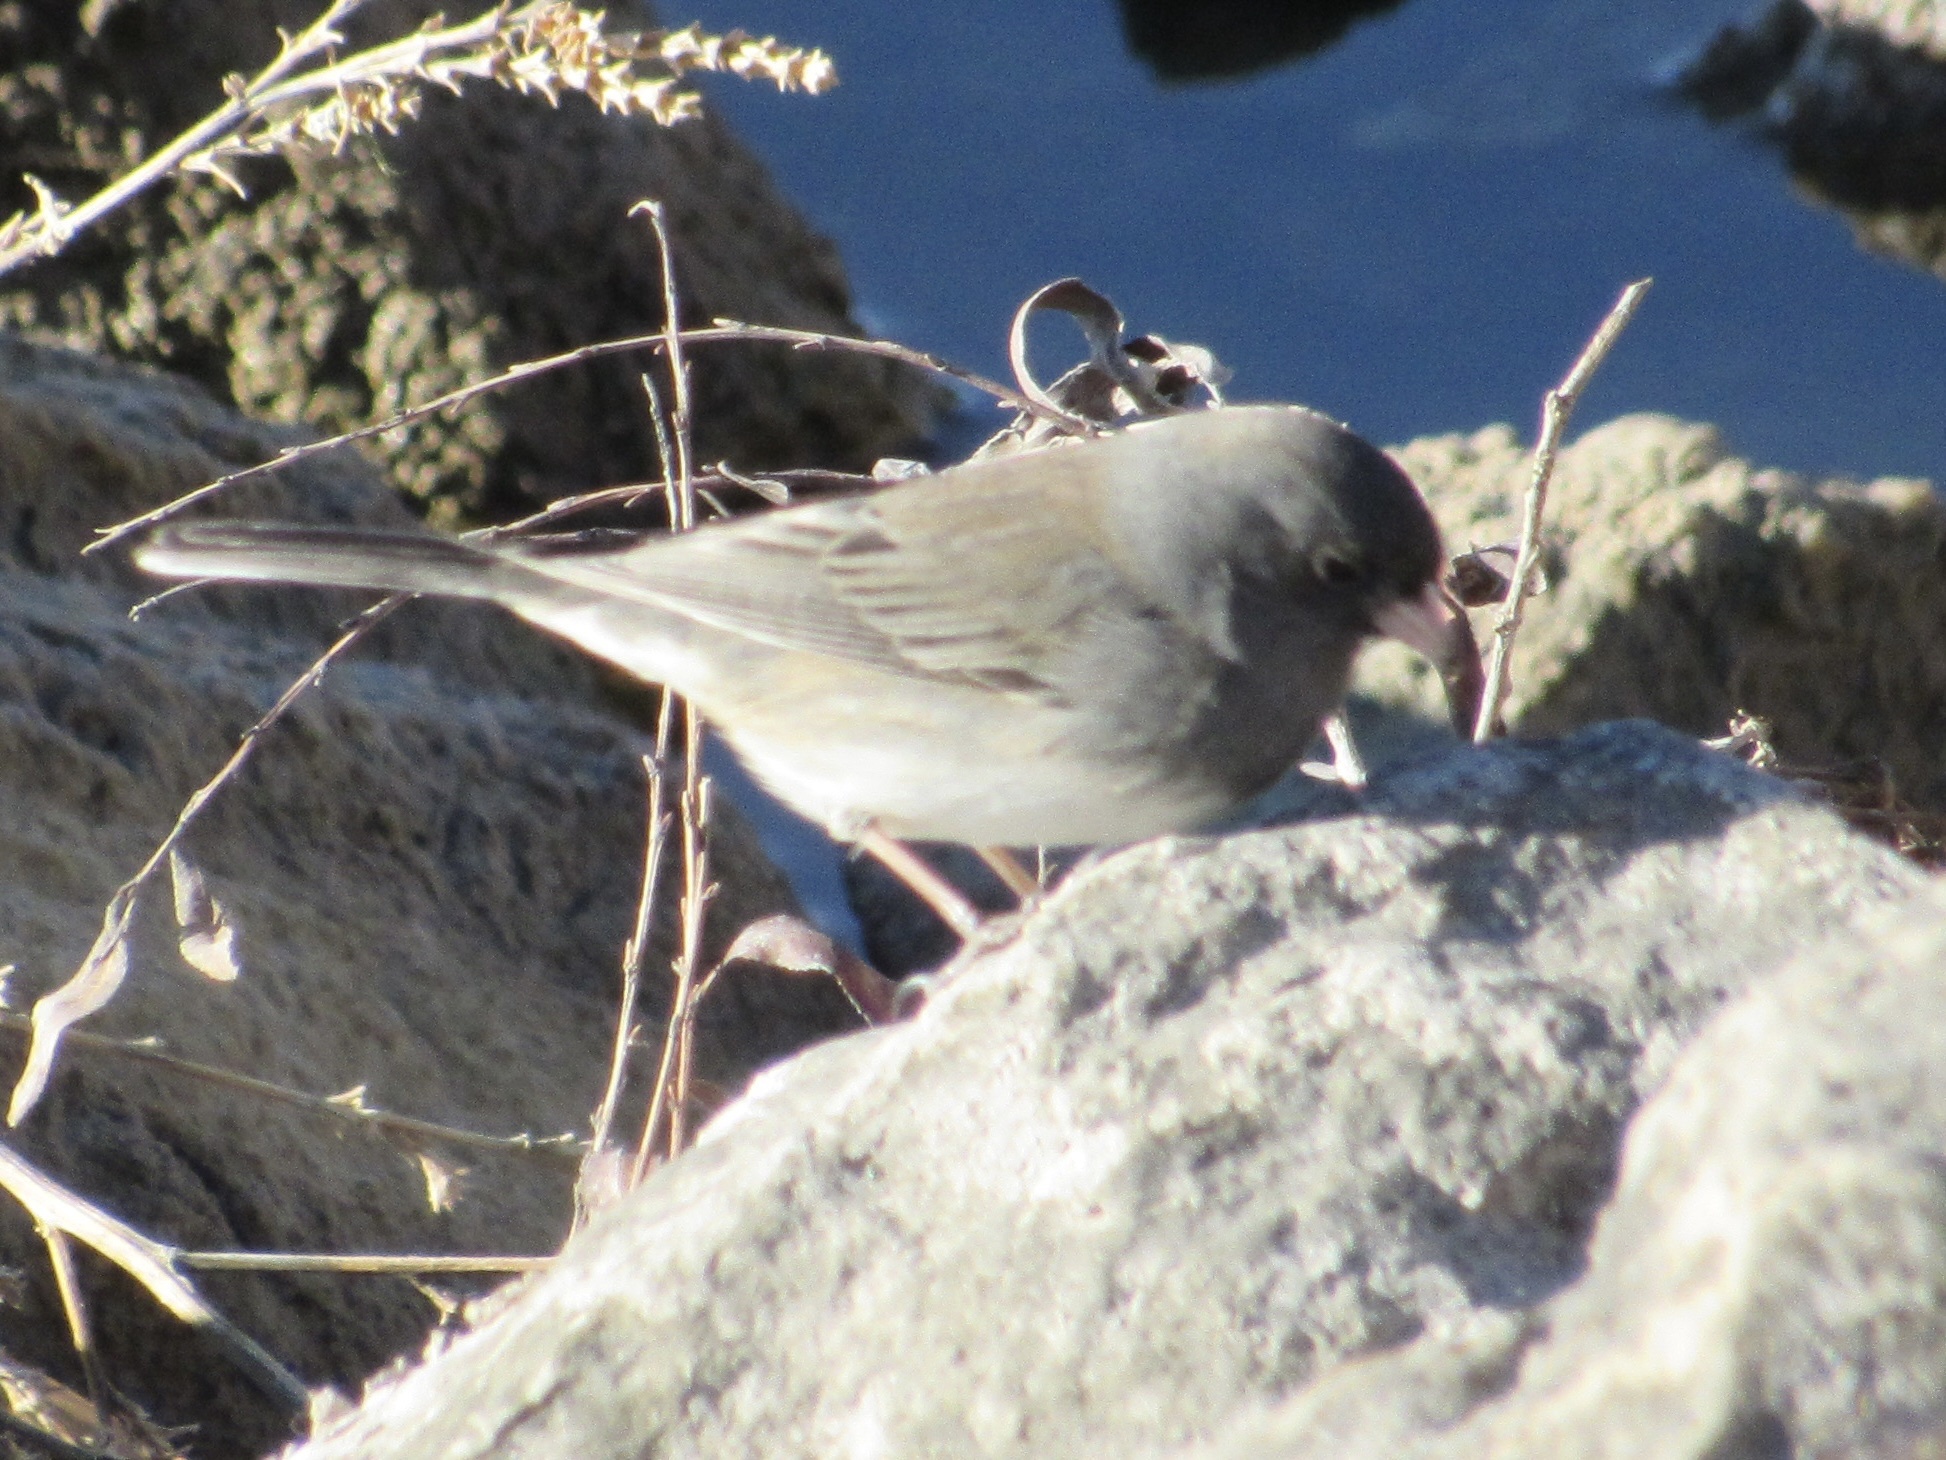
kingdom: Animalia
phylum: Chordata
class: Aves
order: Passeriformes
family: Passerellidae
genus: Junco
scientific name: Junco hyemalis
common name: Dark-eyed junco
